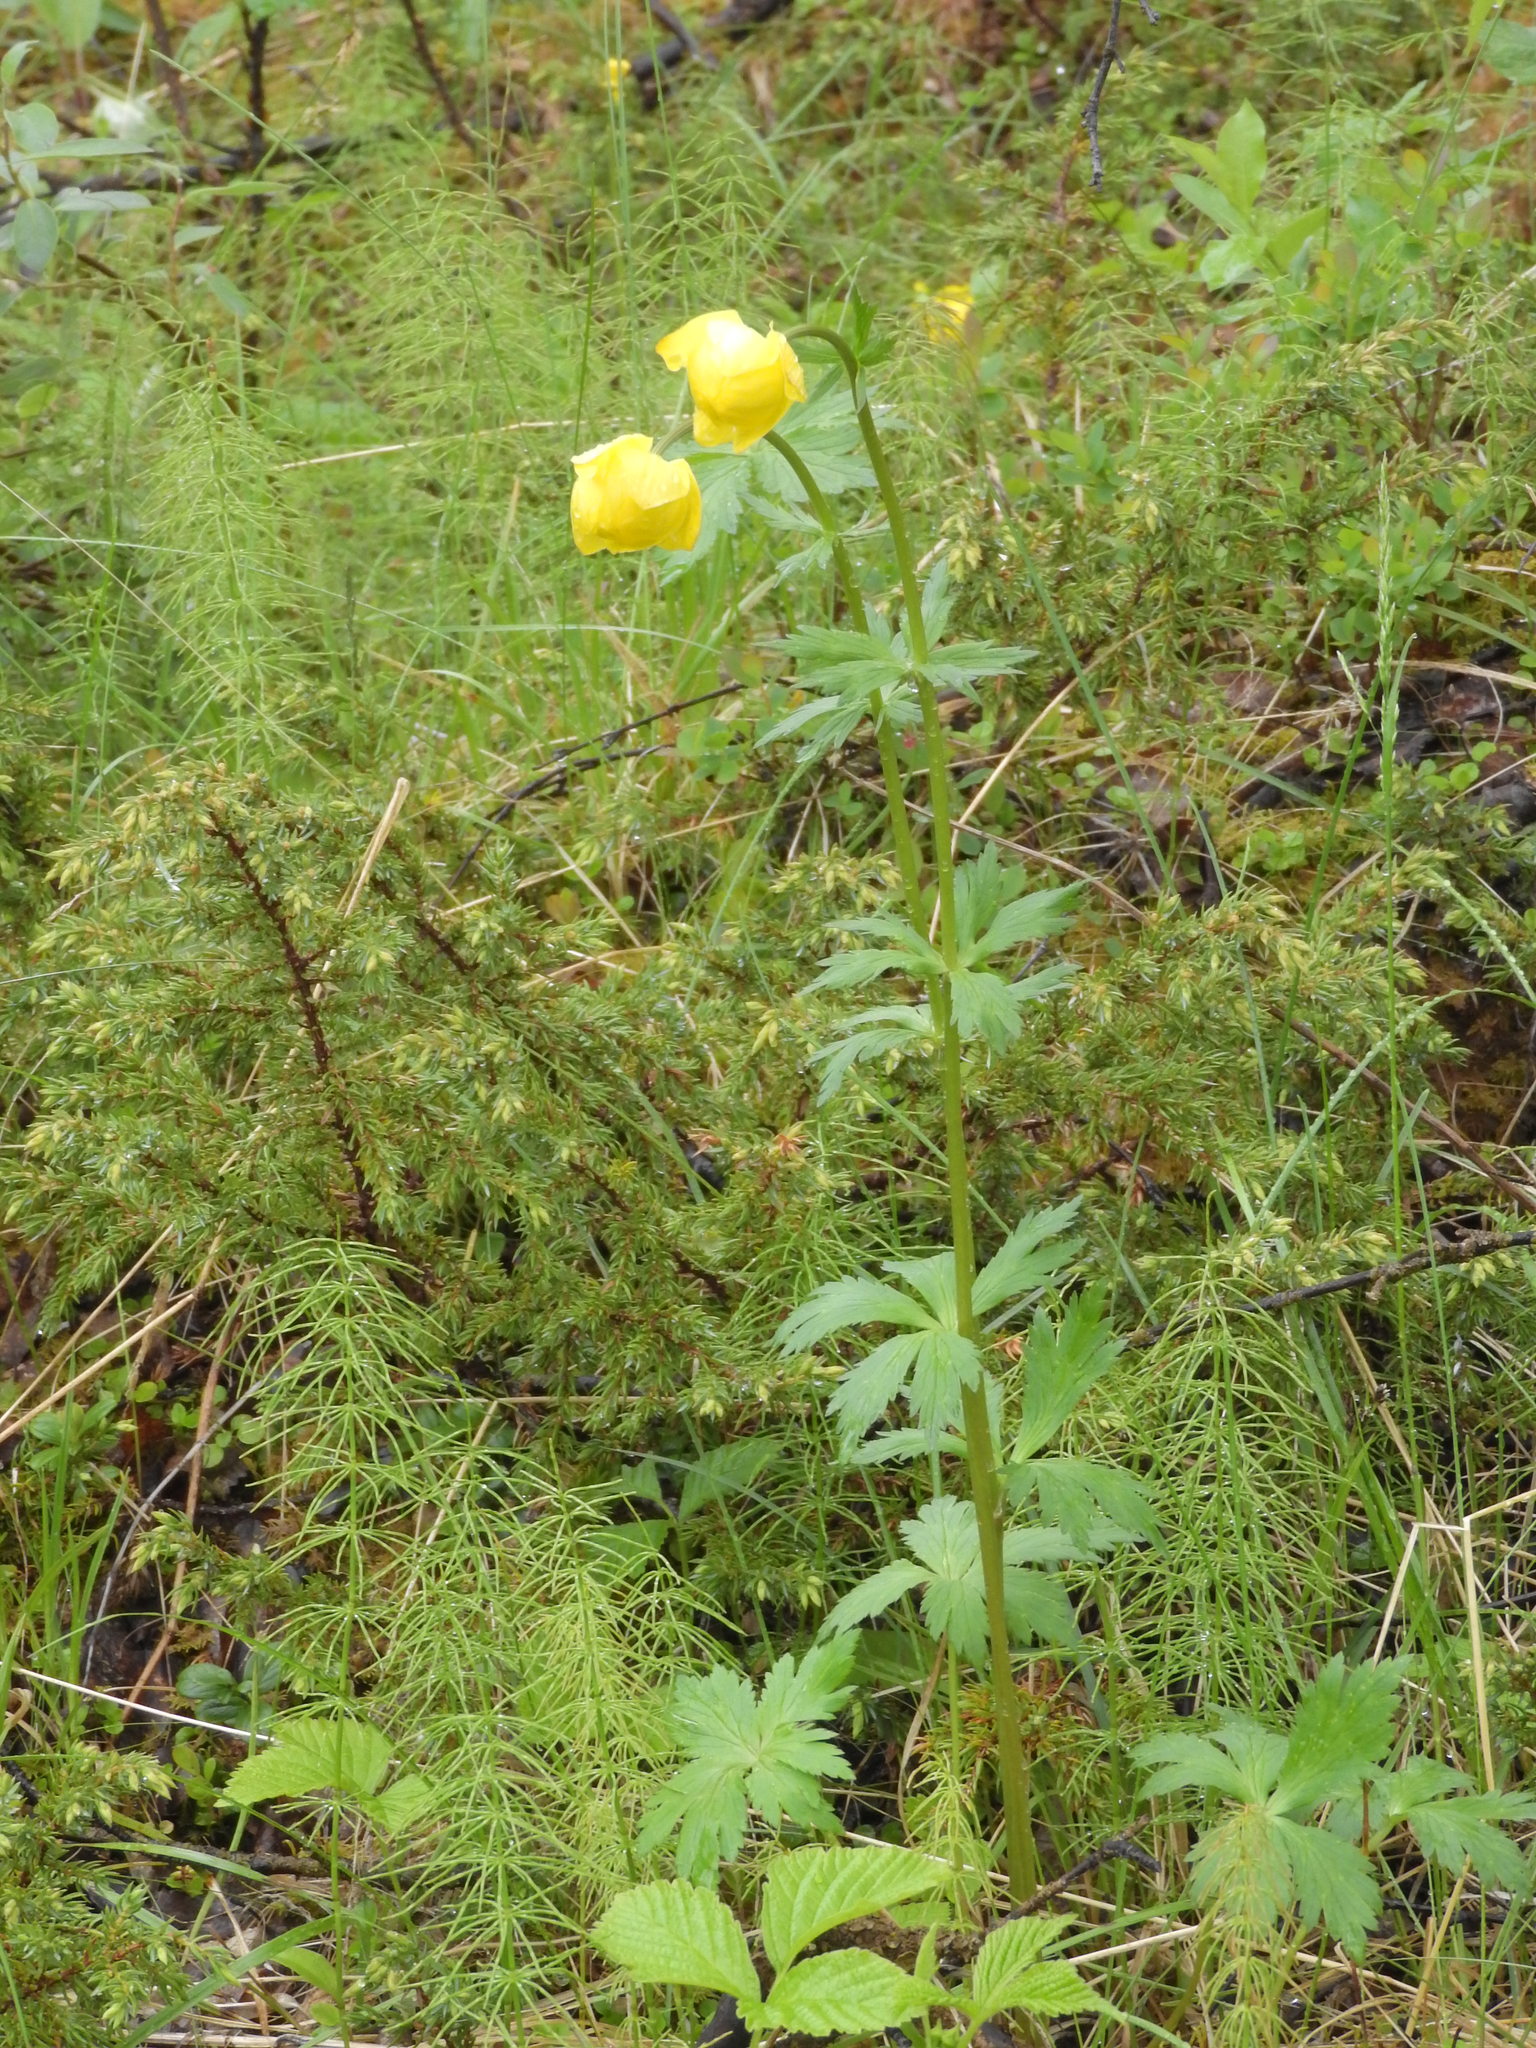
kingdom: Plantae
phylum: Tracheophyta
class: Magnoliopsida
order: Ranunculales
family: Ranunculaceae
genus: Trollius
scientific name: Trollius europaeus
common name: European globeflower
